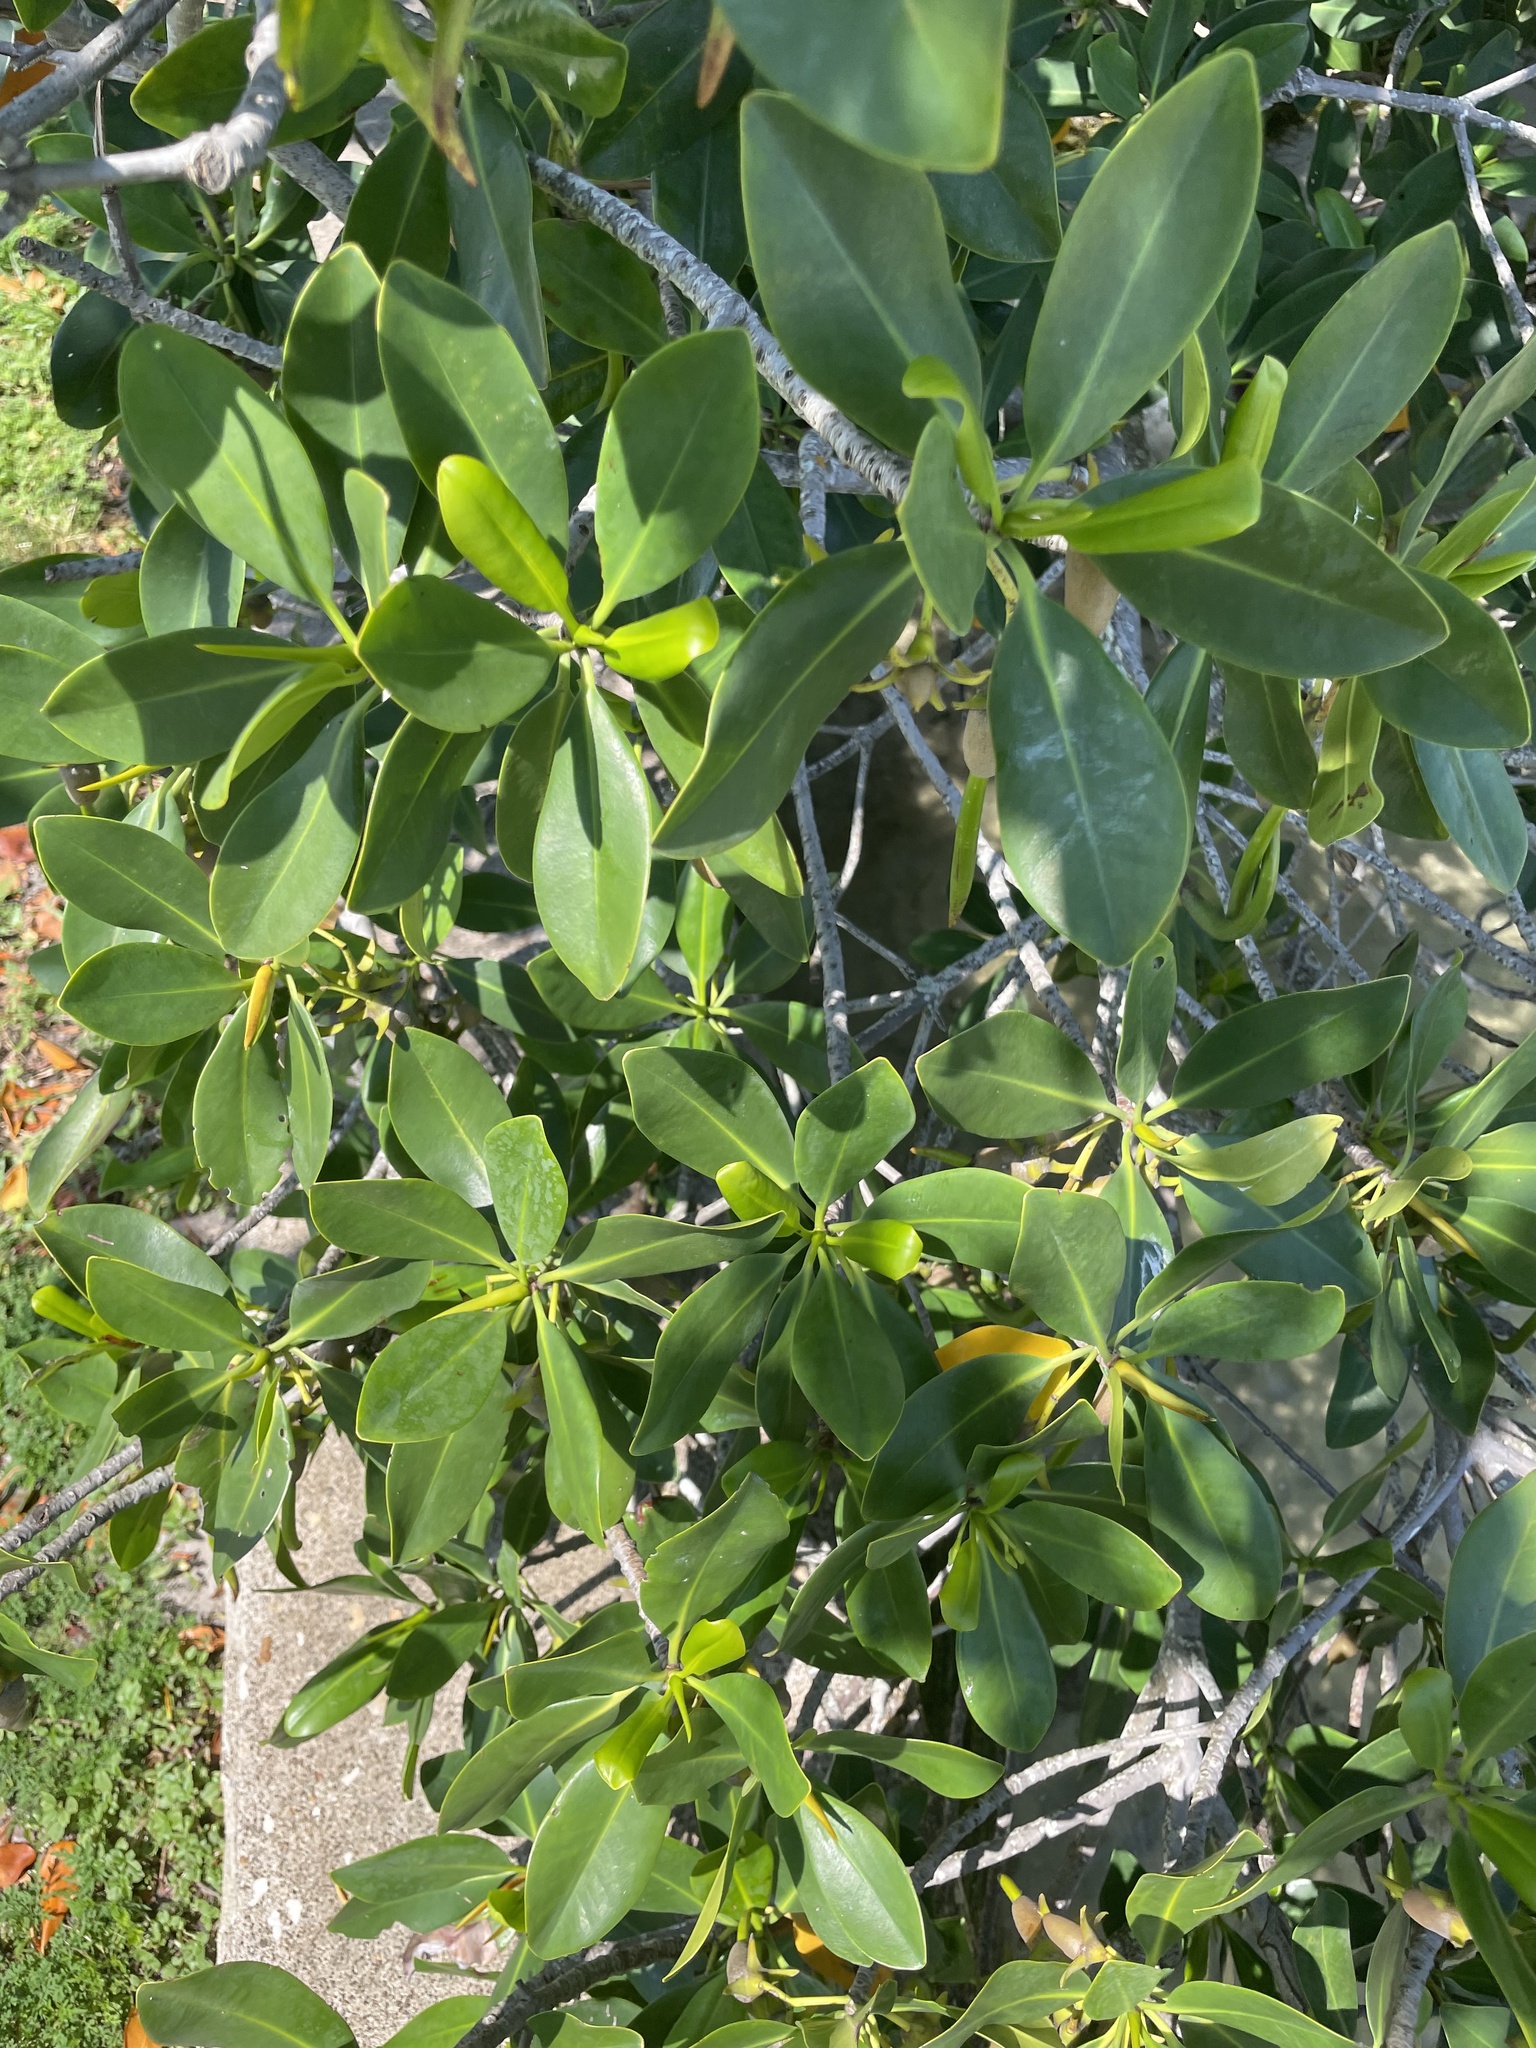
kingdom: Plantae
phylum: Tracheophyta
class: Magnoliopsida
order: Malpighiales
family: Rhizophoraceae
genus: Rhizophora
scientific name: Rhizophora mangle
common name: Red mangrove
